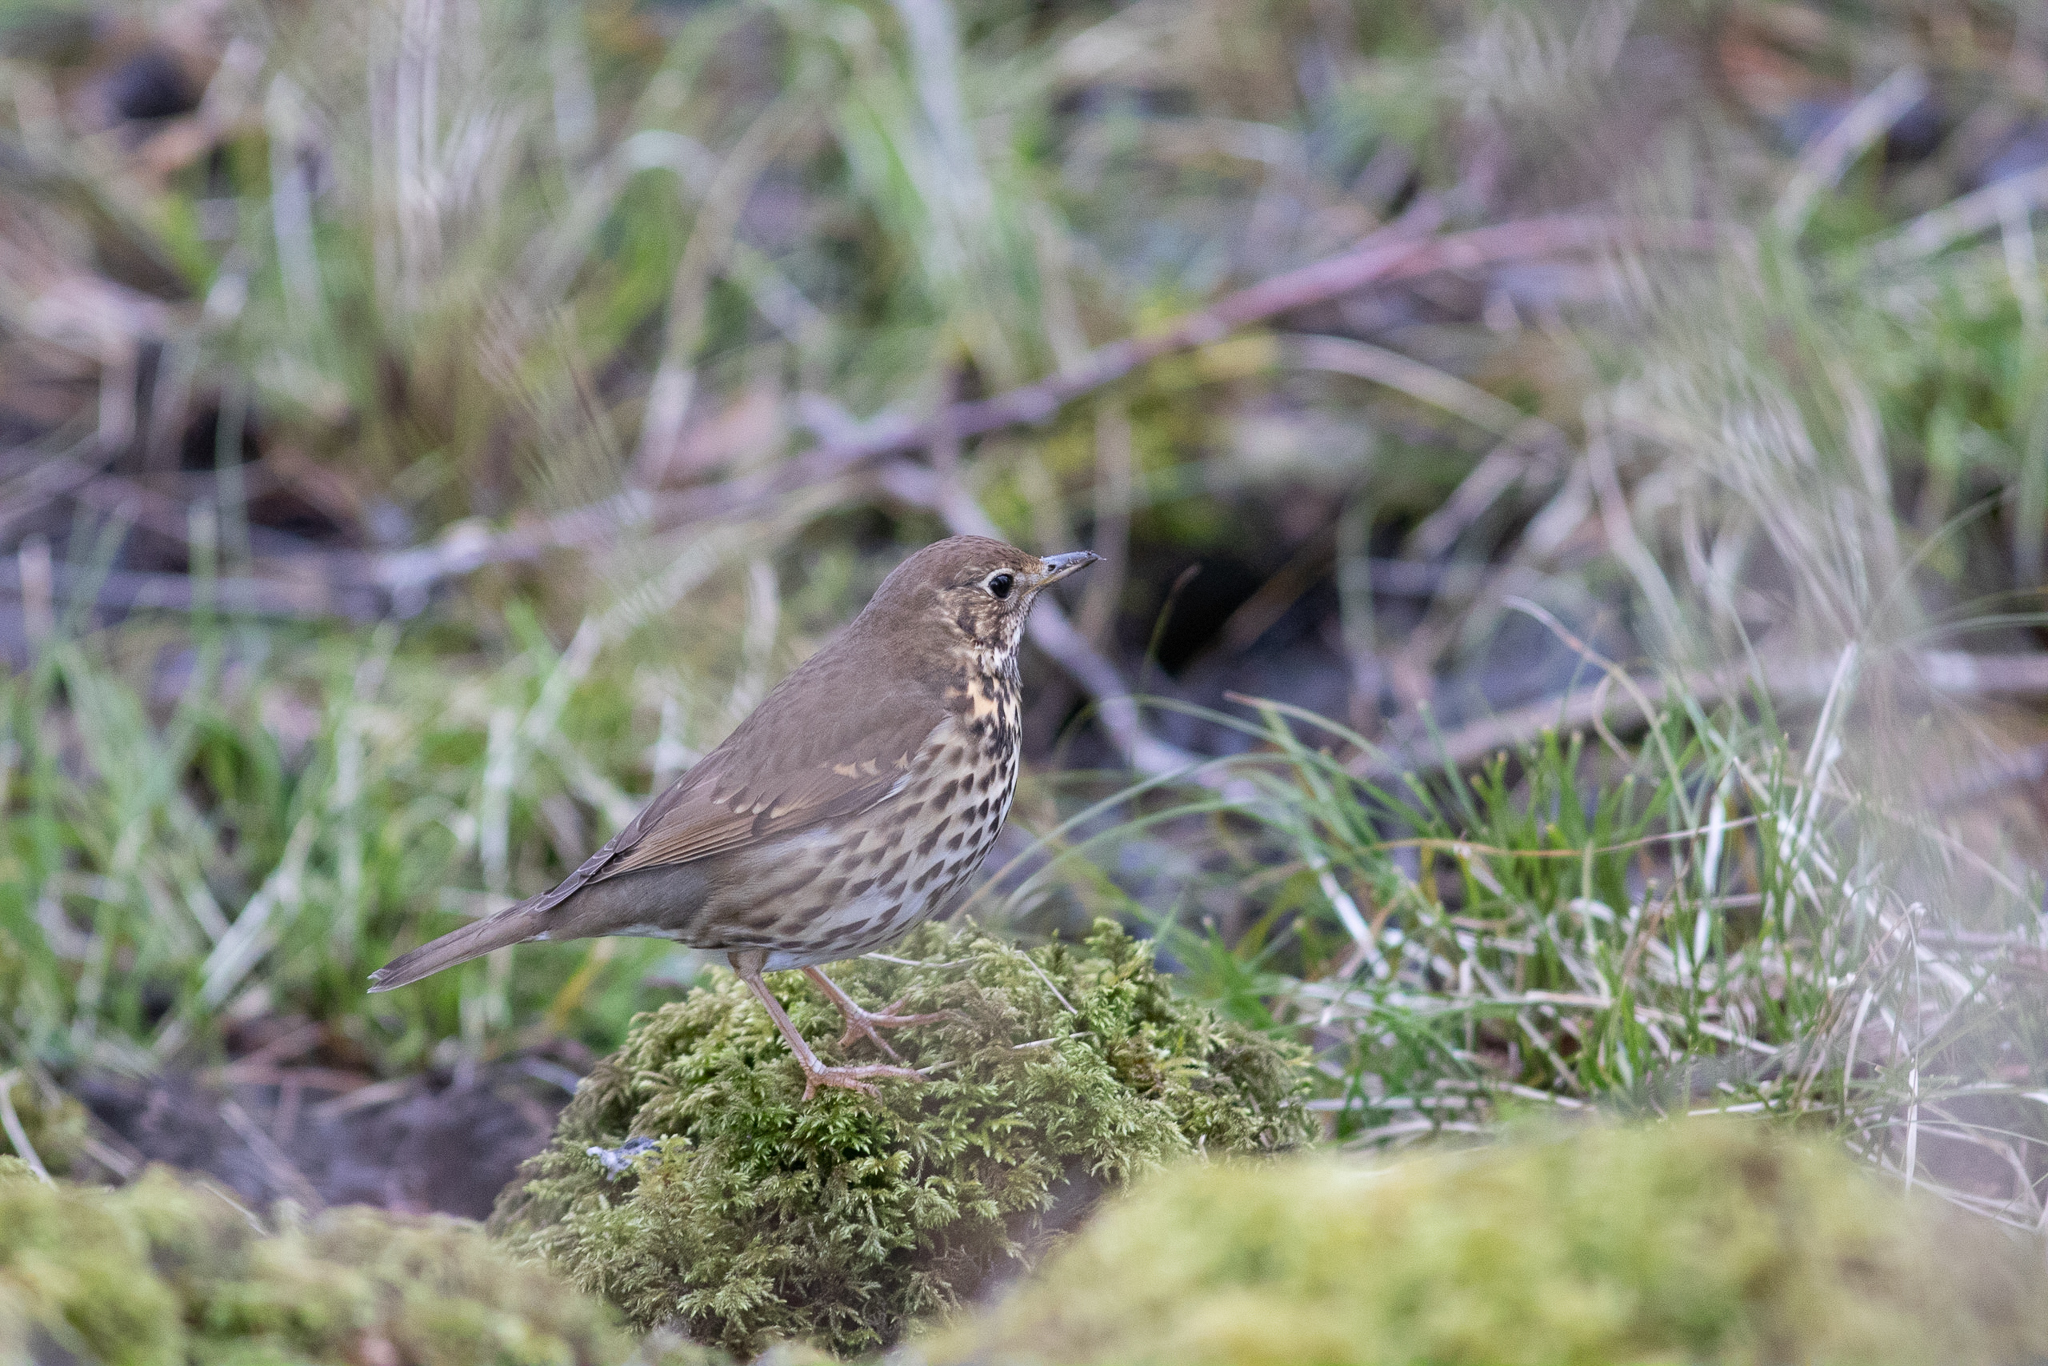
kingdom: Animalia
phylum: Chordata
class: Aves
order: Passeriformes
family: Turdidae
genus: Turdus
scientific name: Turdus philomelos
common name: Song thrush
